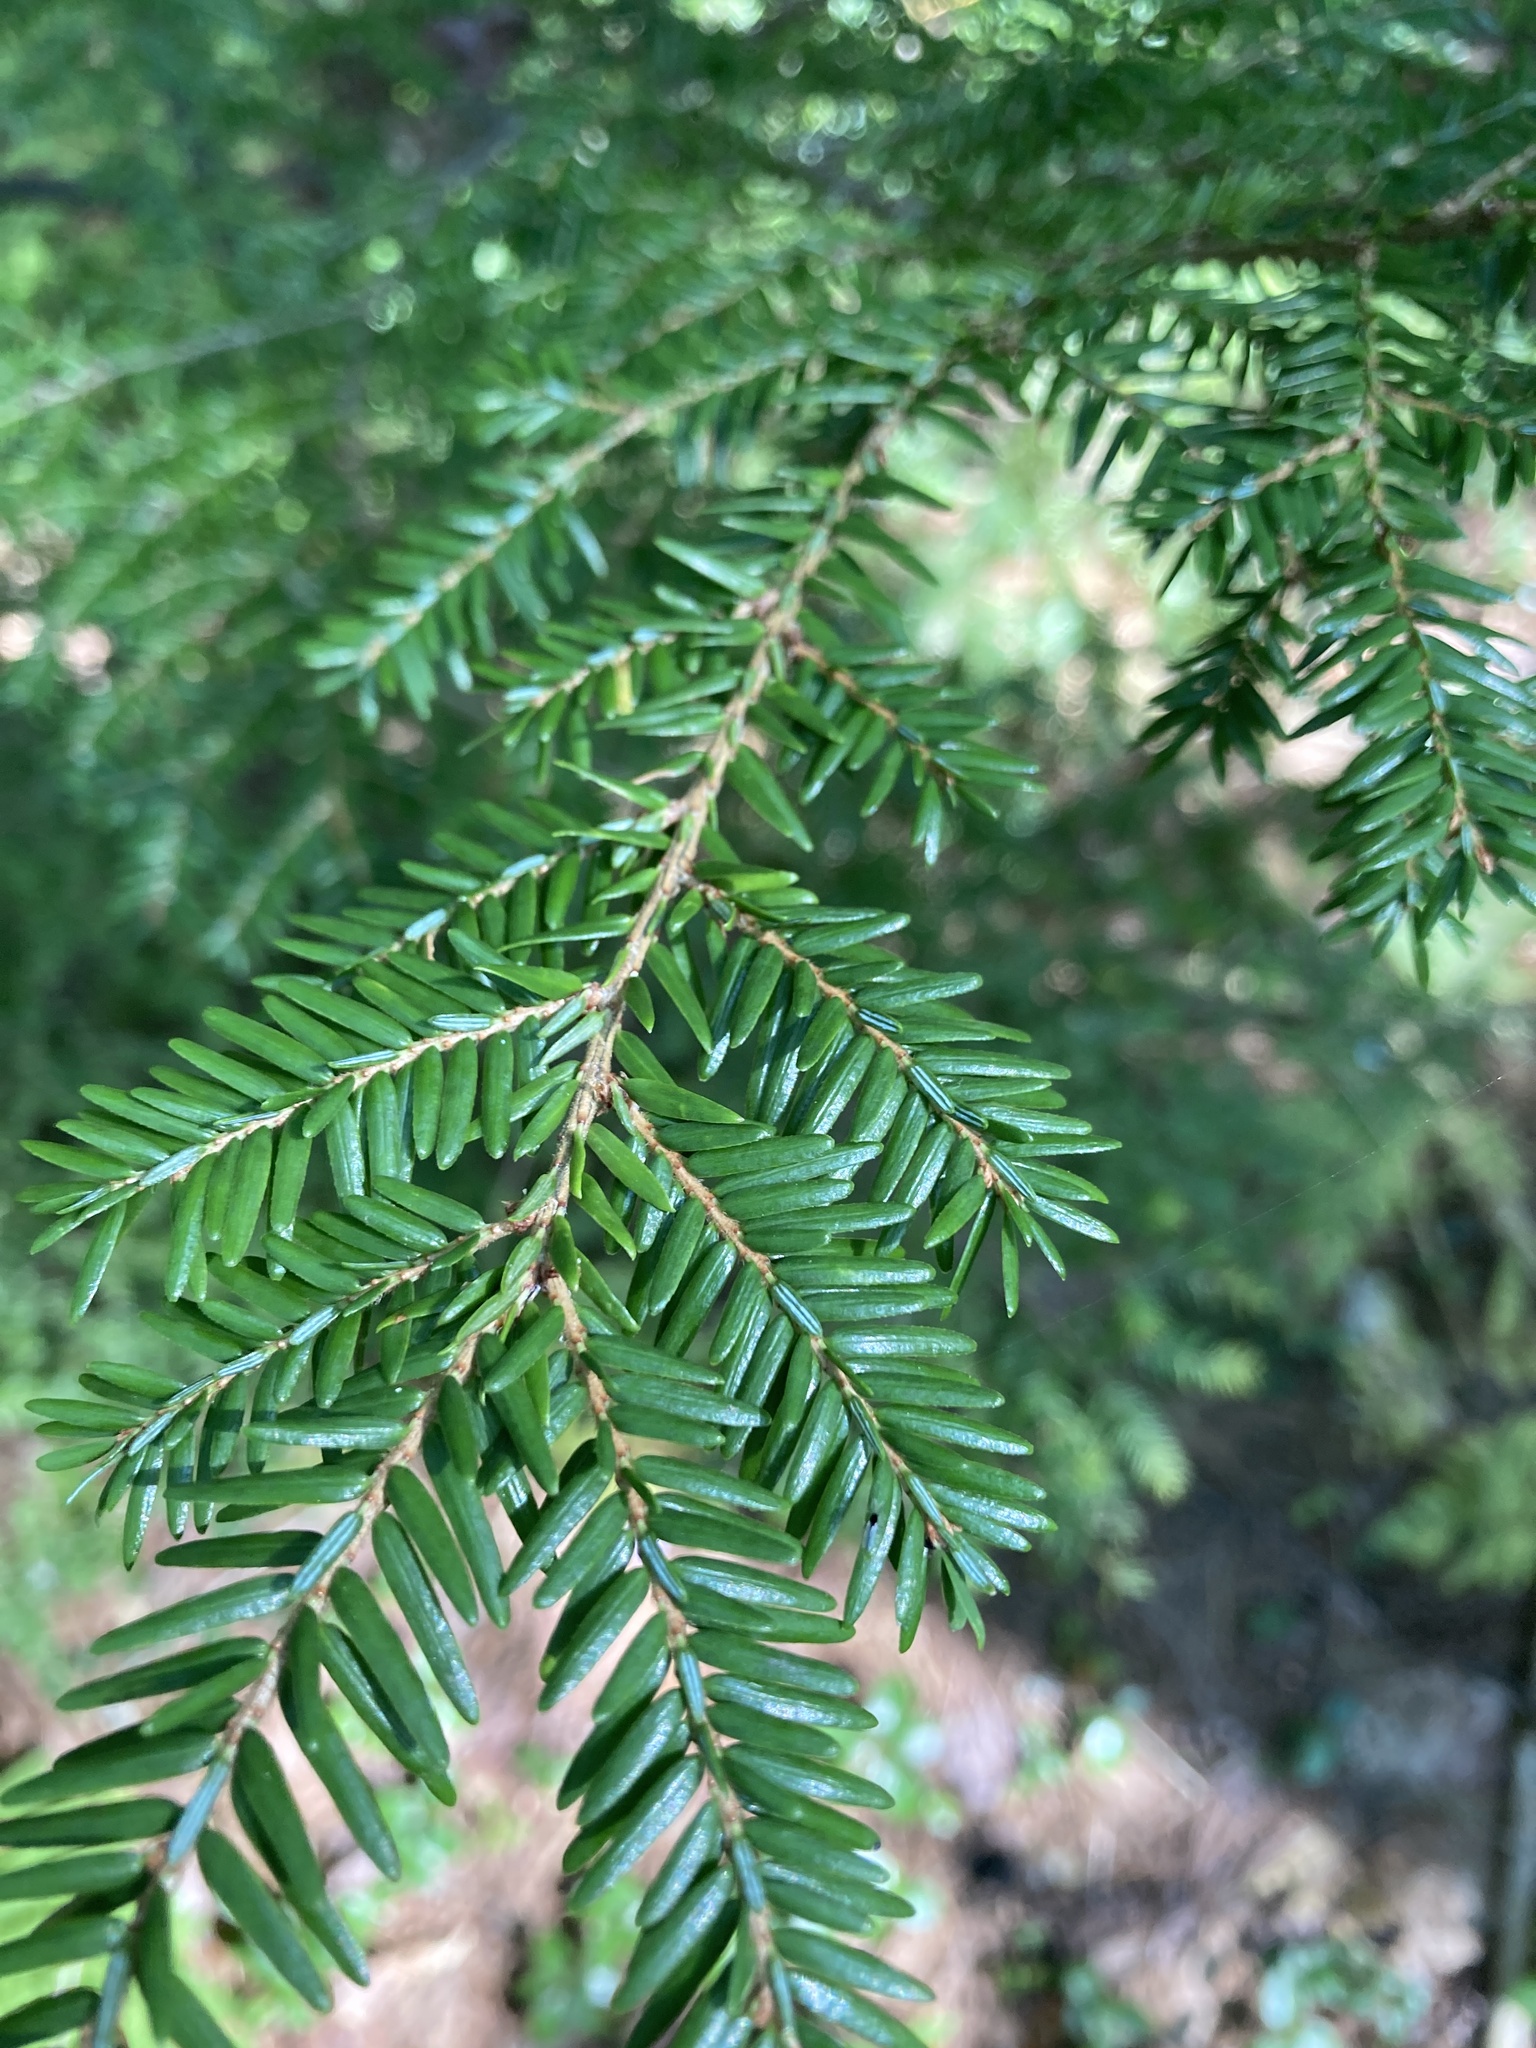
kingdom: Plantae
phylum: Tracheophyta
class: Pinopsida
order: Pinales
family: Pinaceae
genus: Tsuga
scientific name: Tsuga canadensis
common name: Eastern hemlock
